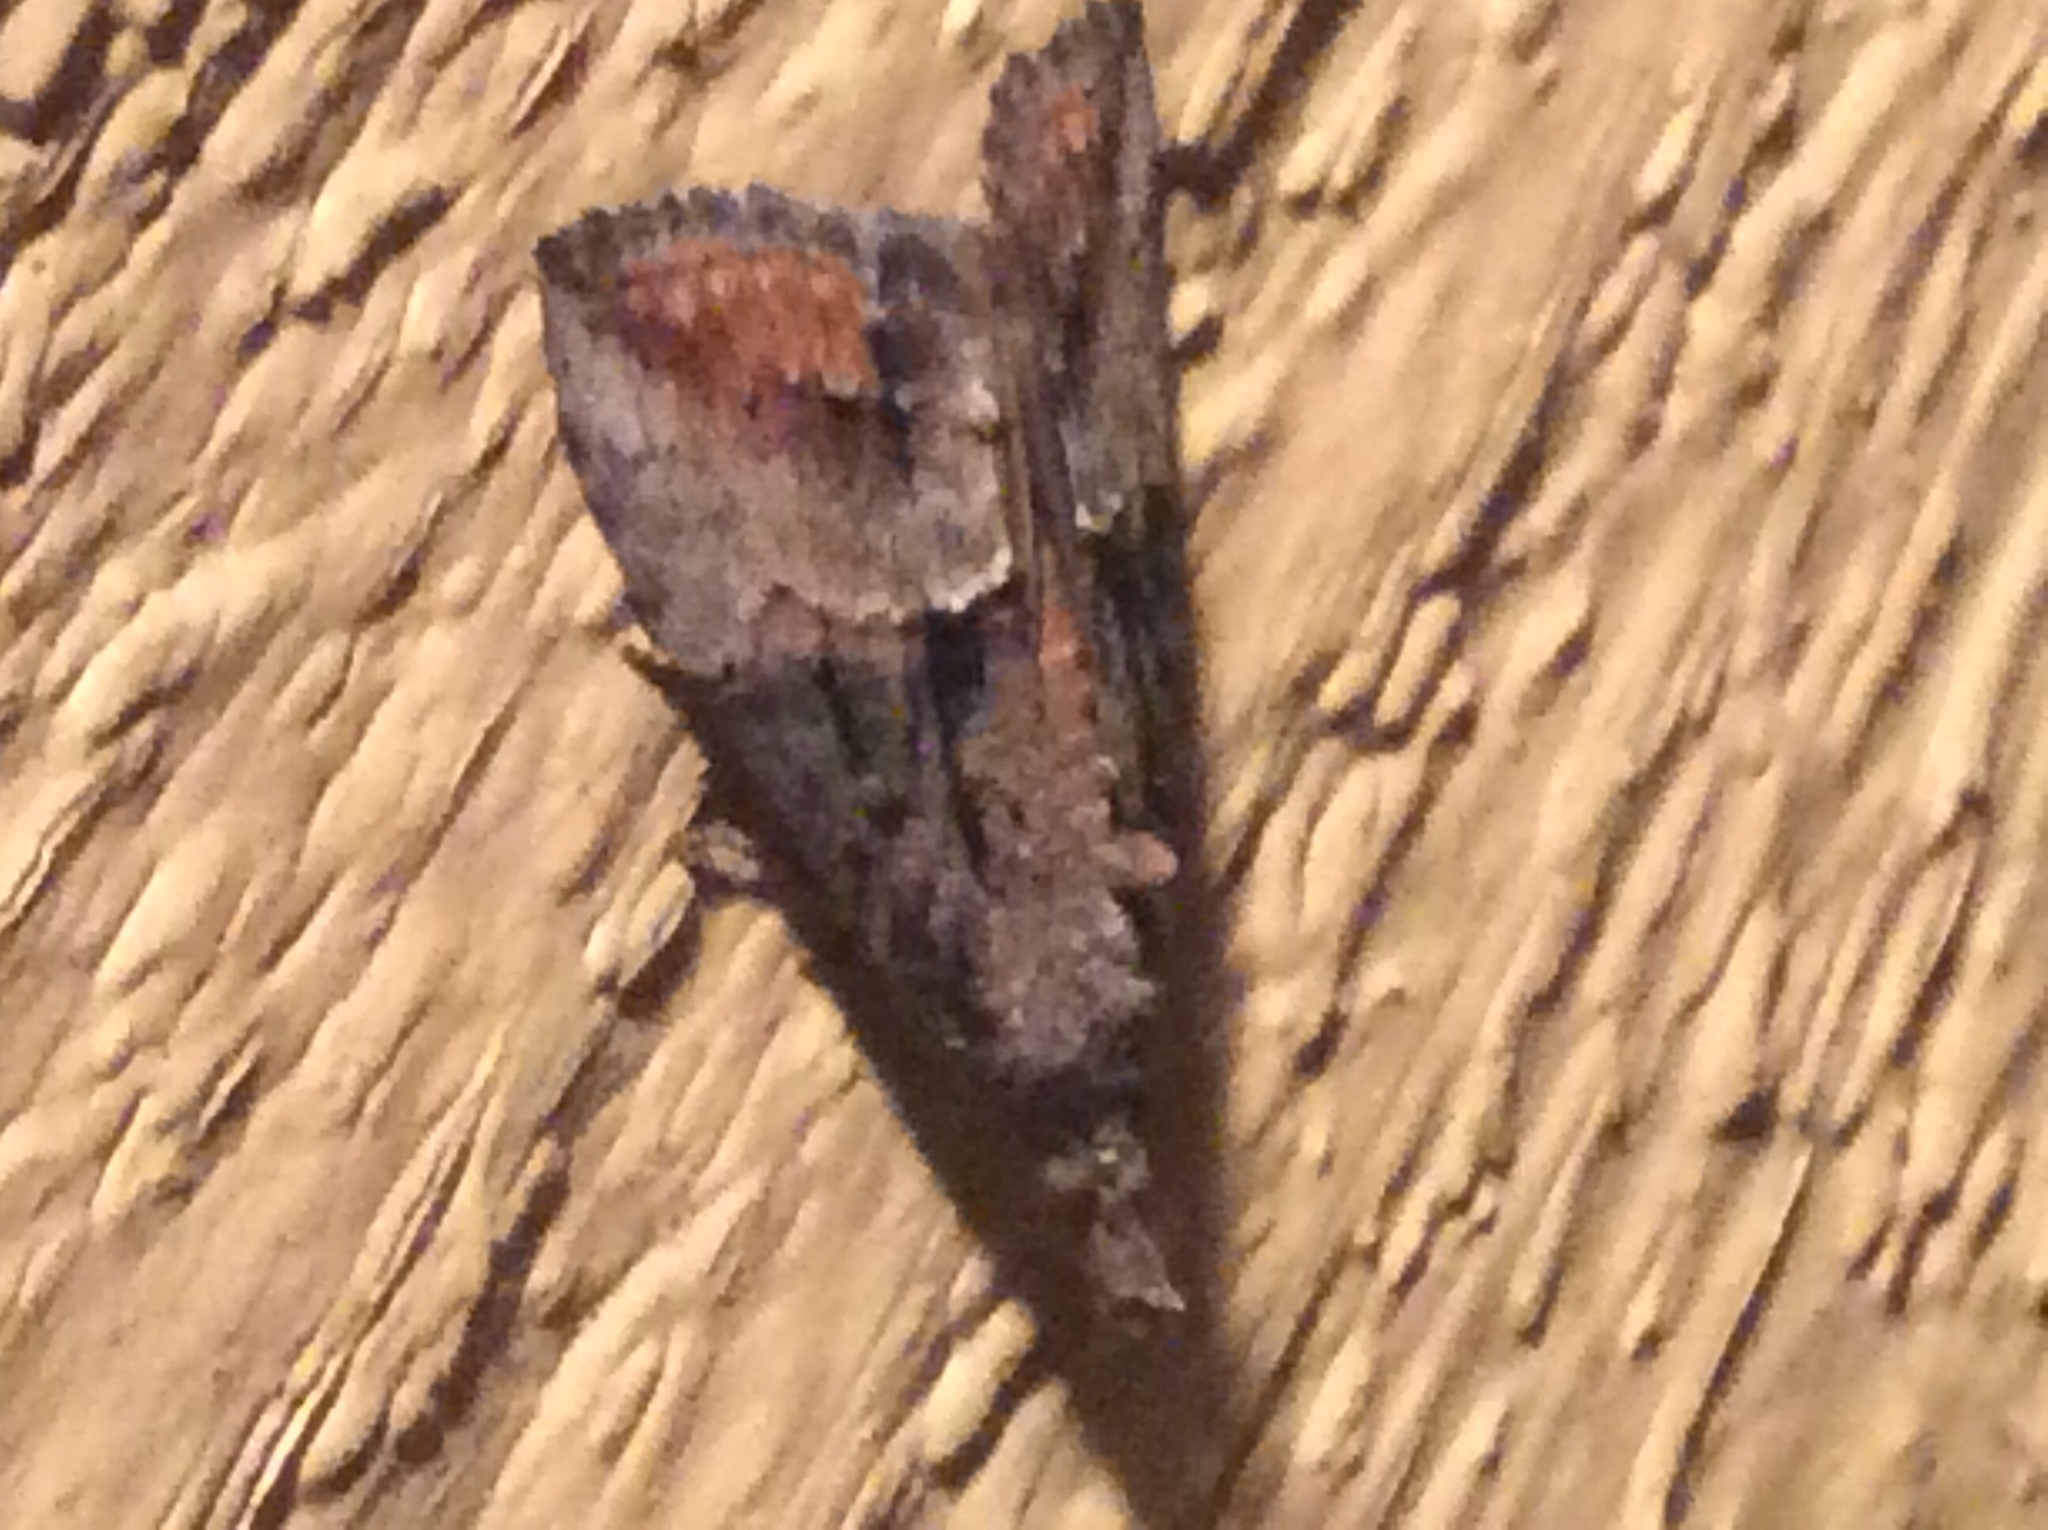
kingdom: Animalia
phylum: Arthropoda
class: Insecta
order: Lepidoptera
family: Erebidae
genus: Hypena
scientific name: Hypena scabra
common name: Green cloverworm
